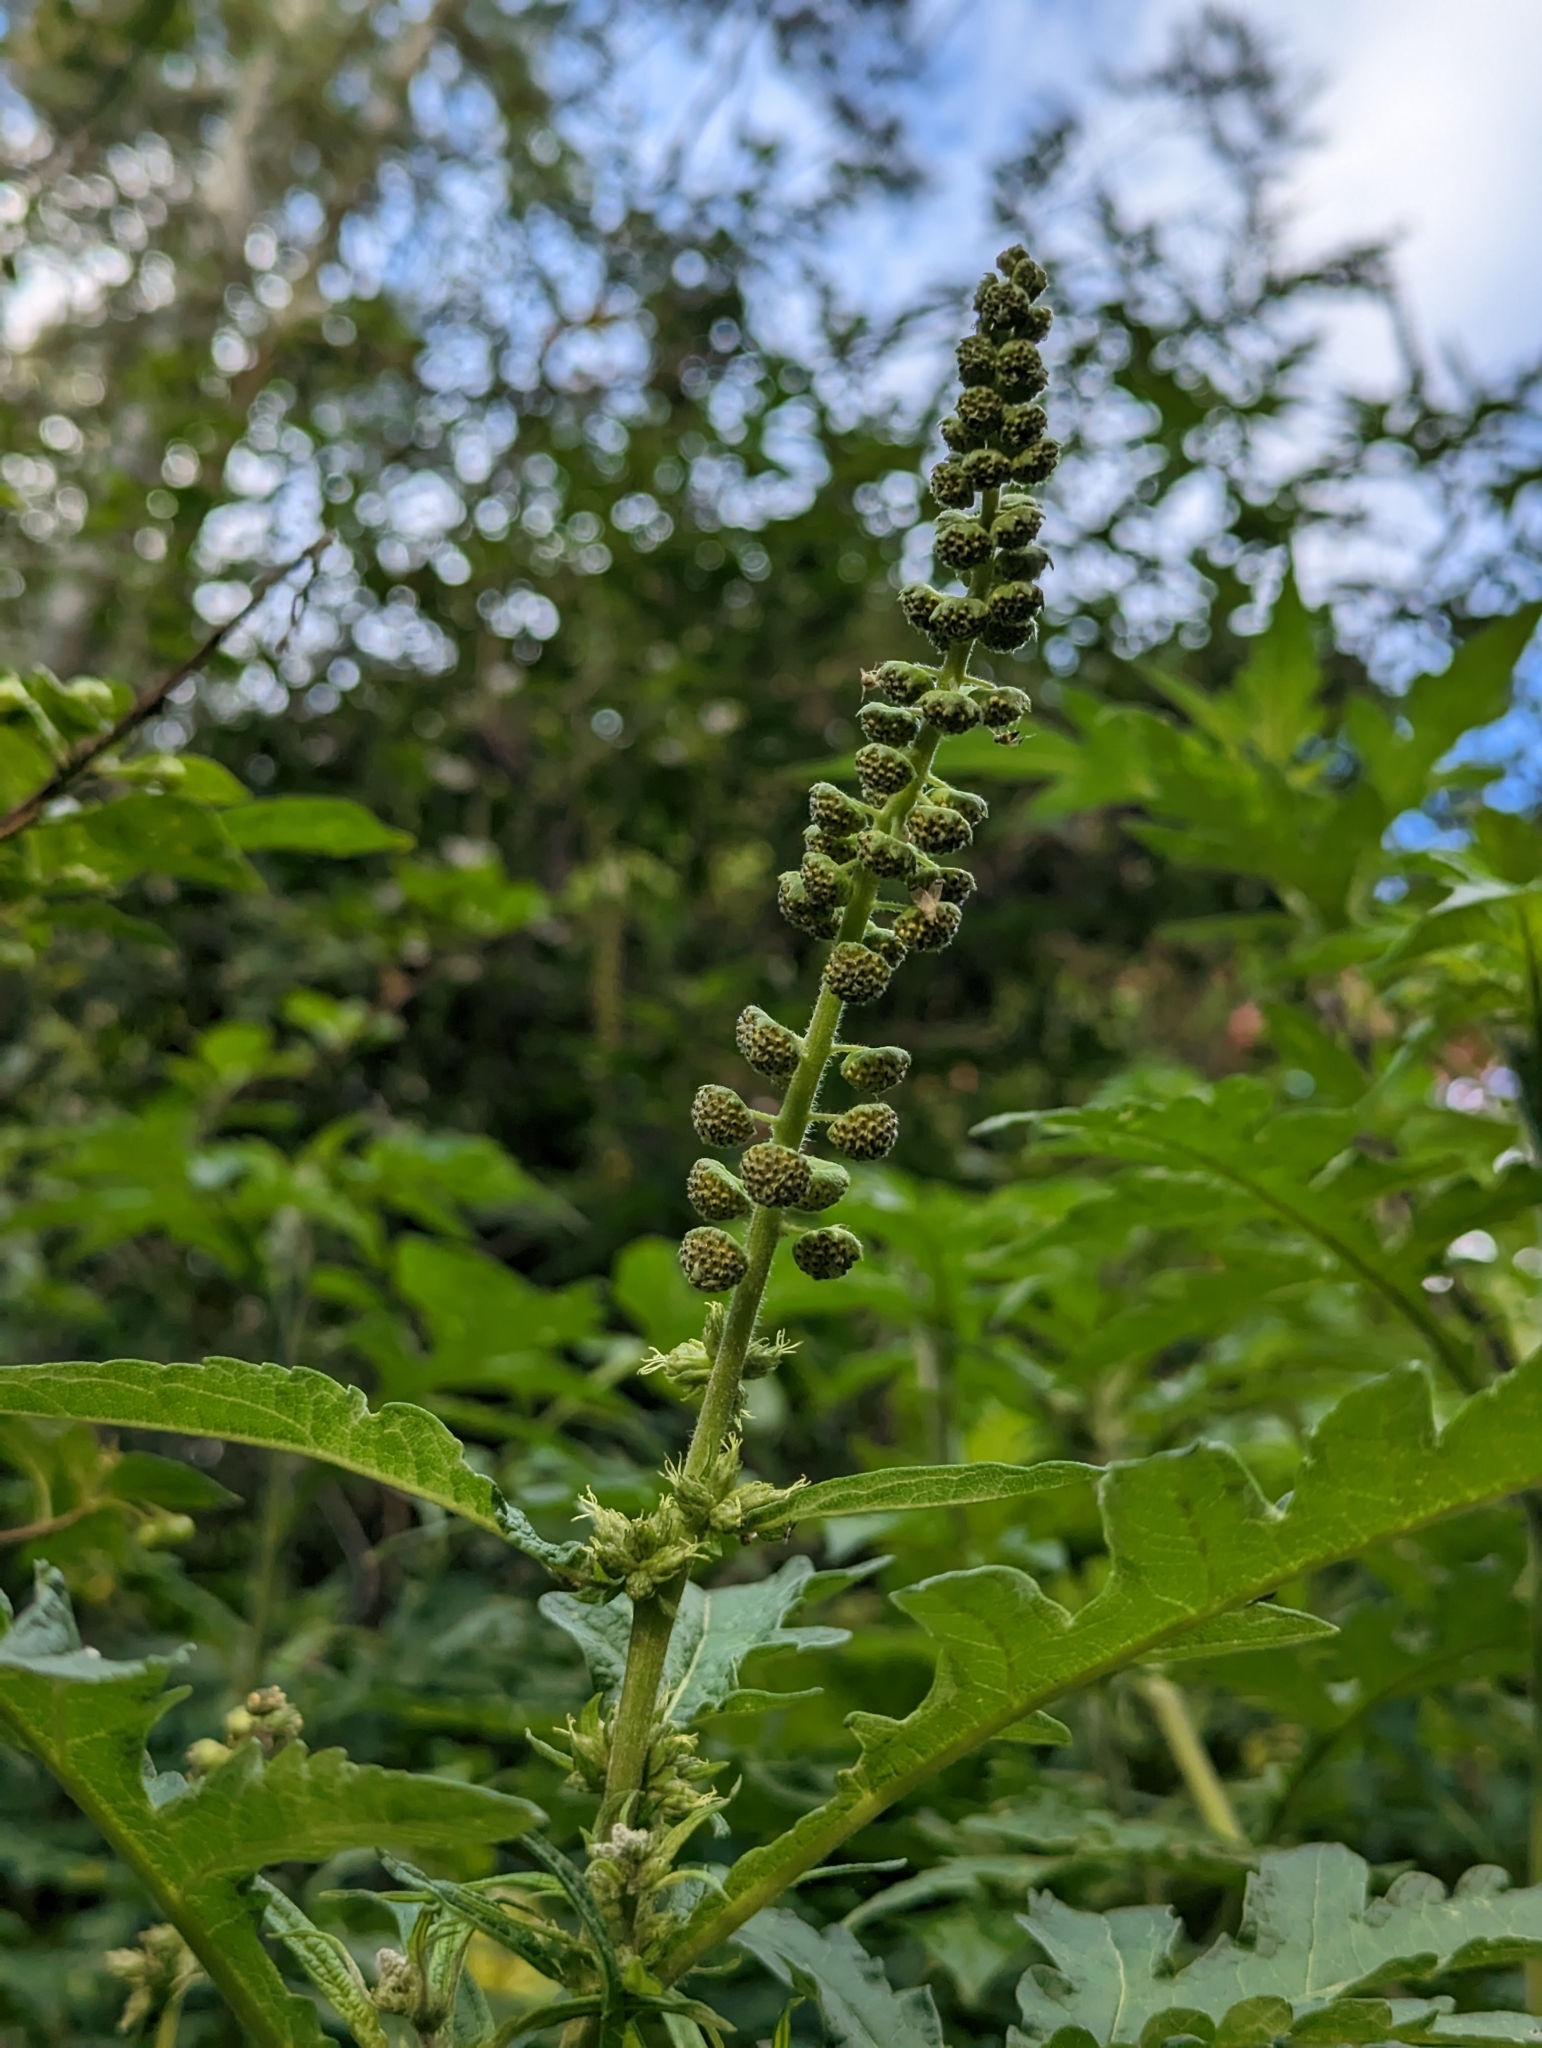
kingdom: Plantae
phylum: Tracheophyta
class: Magnoliopsida
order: Asterales
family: Asteraceae
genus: Ambrosia
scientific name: Ambrosia arborescens
